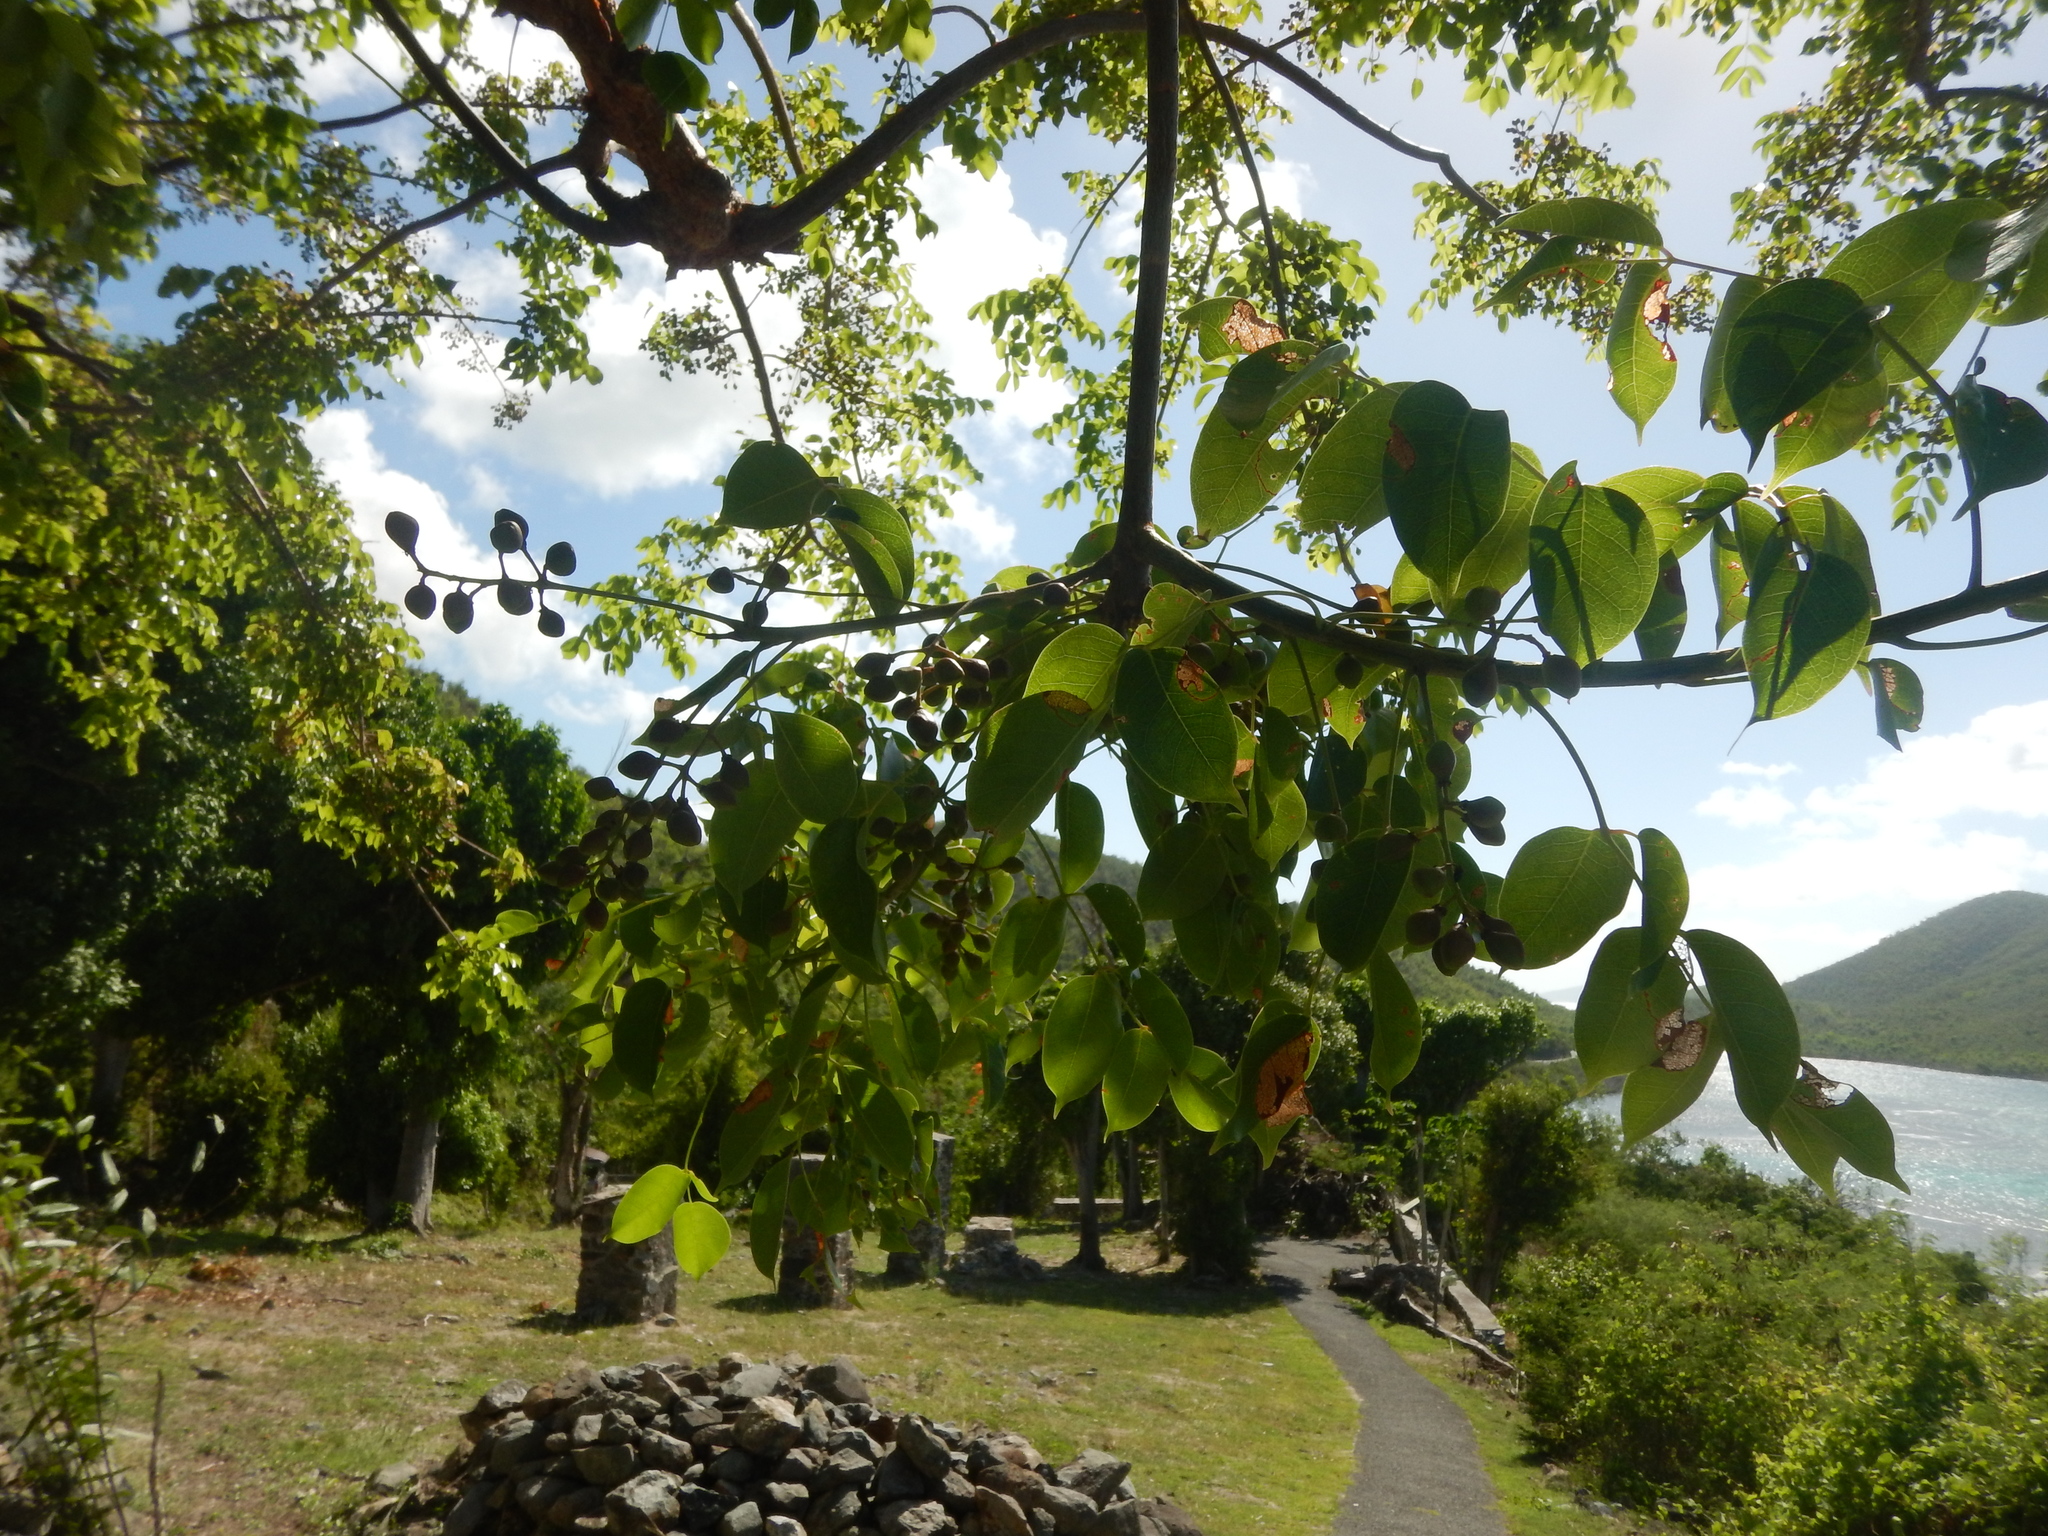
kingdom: Plantae
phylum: Tracheophyta
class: Magnoliopsida
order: Sapindales
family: Burseraceae
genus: Bursera
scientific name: Bursera simaruba
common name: Turpentine tree
